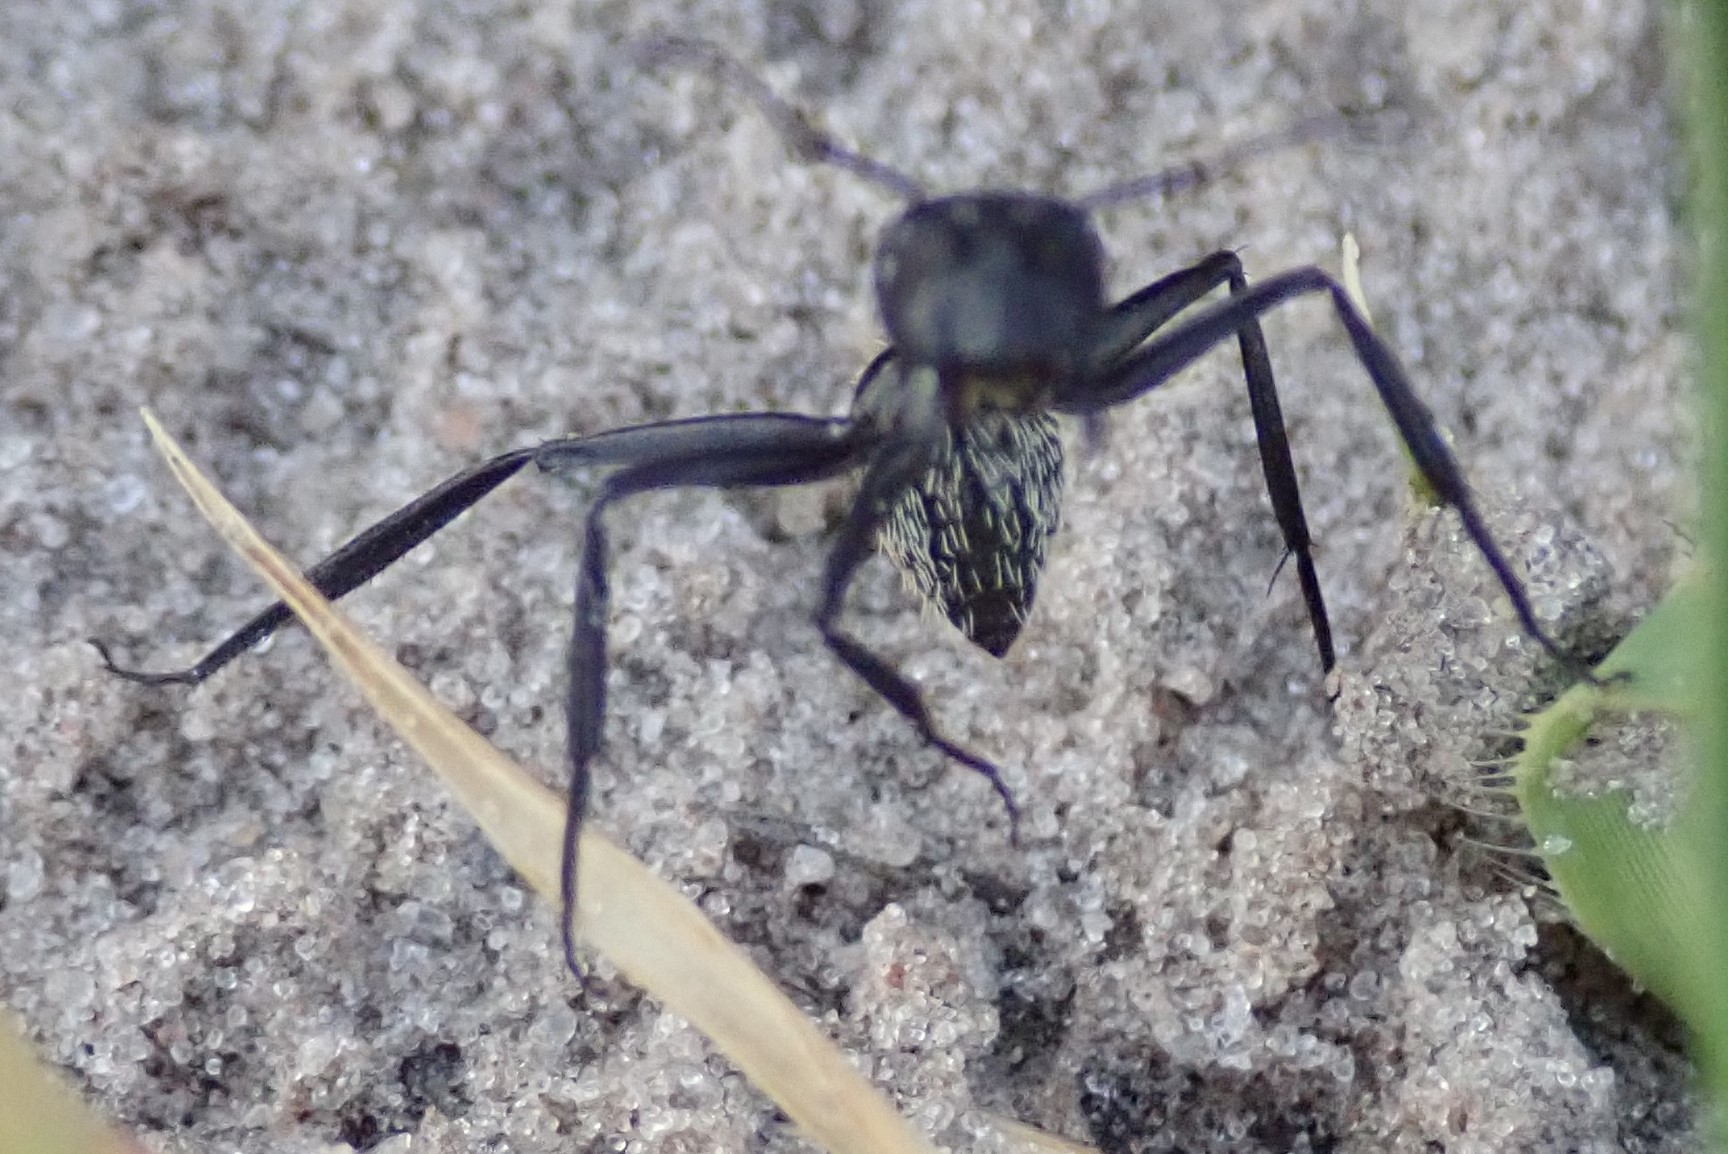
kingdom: Animalia
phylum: Arthropoda
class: Insecta
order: Hymenoptera
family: Formicidae
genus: Camponotus
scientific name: Camponotus fulvopilosus
